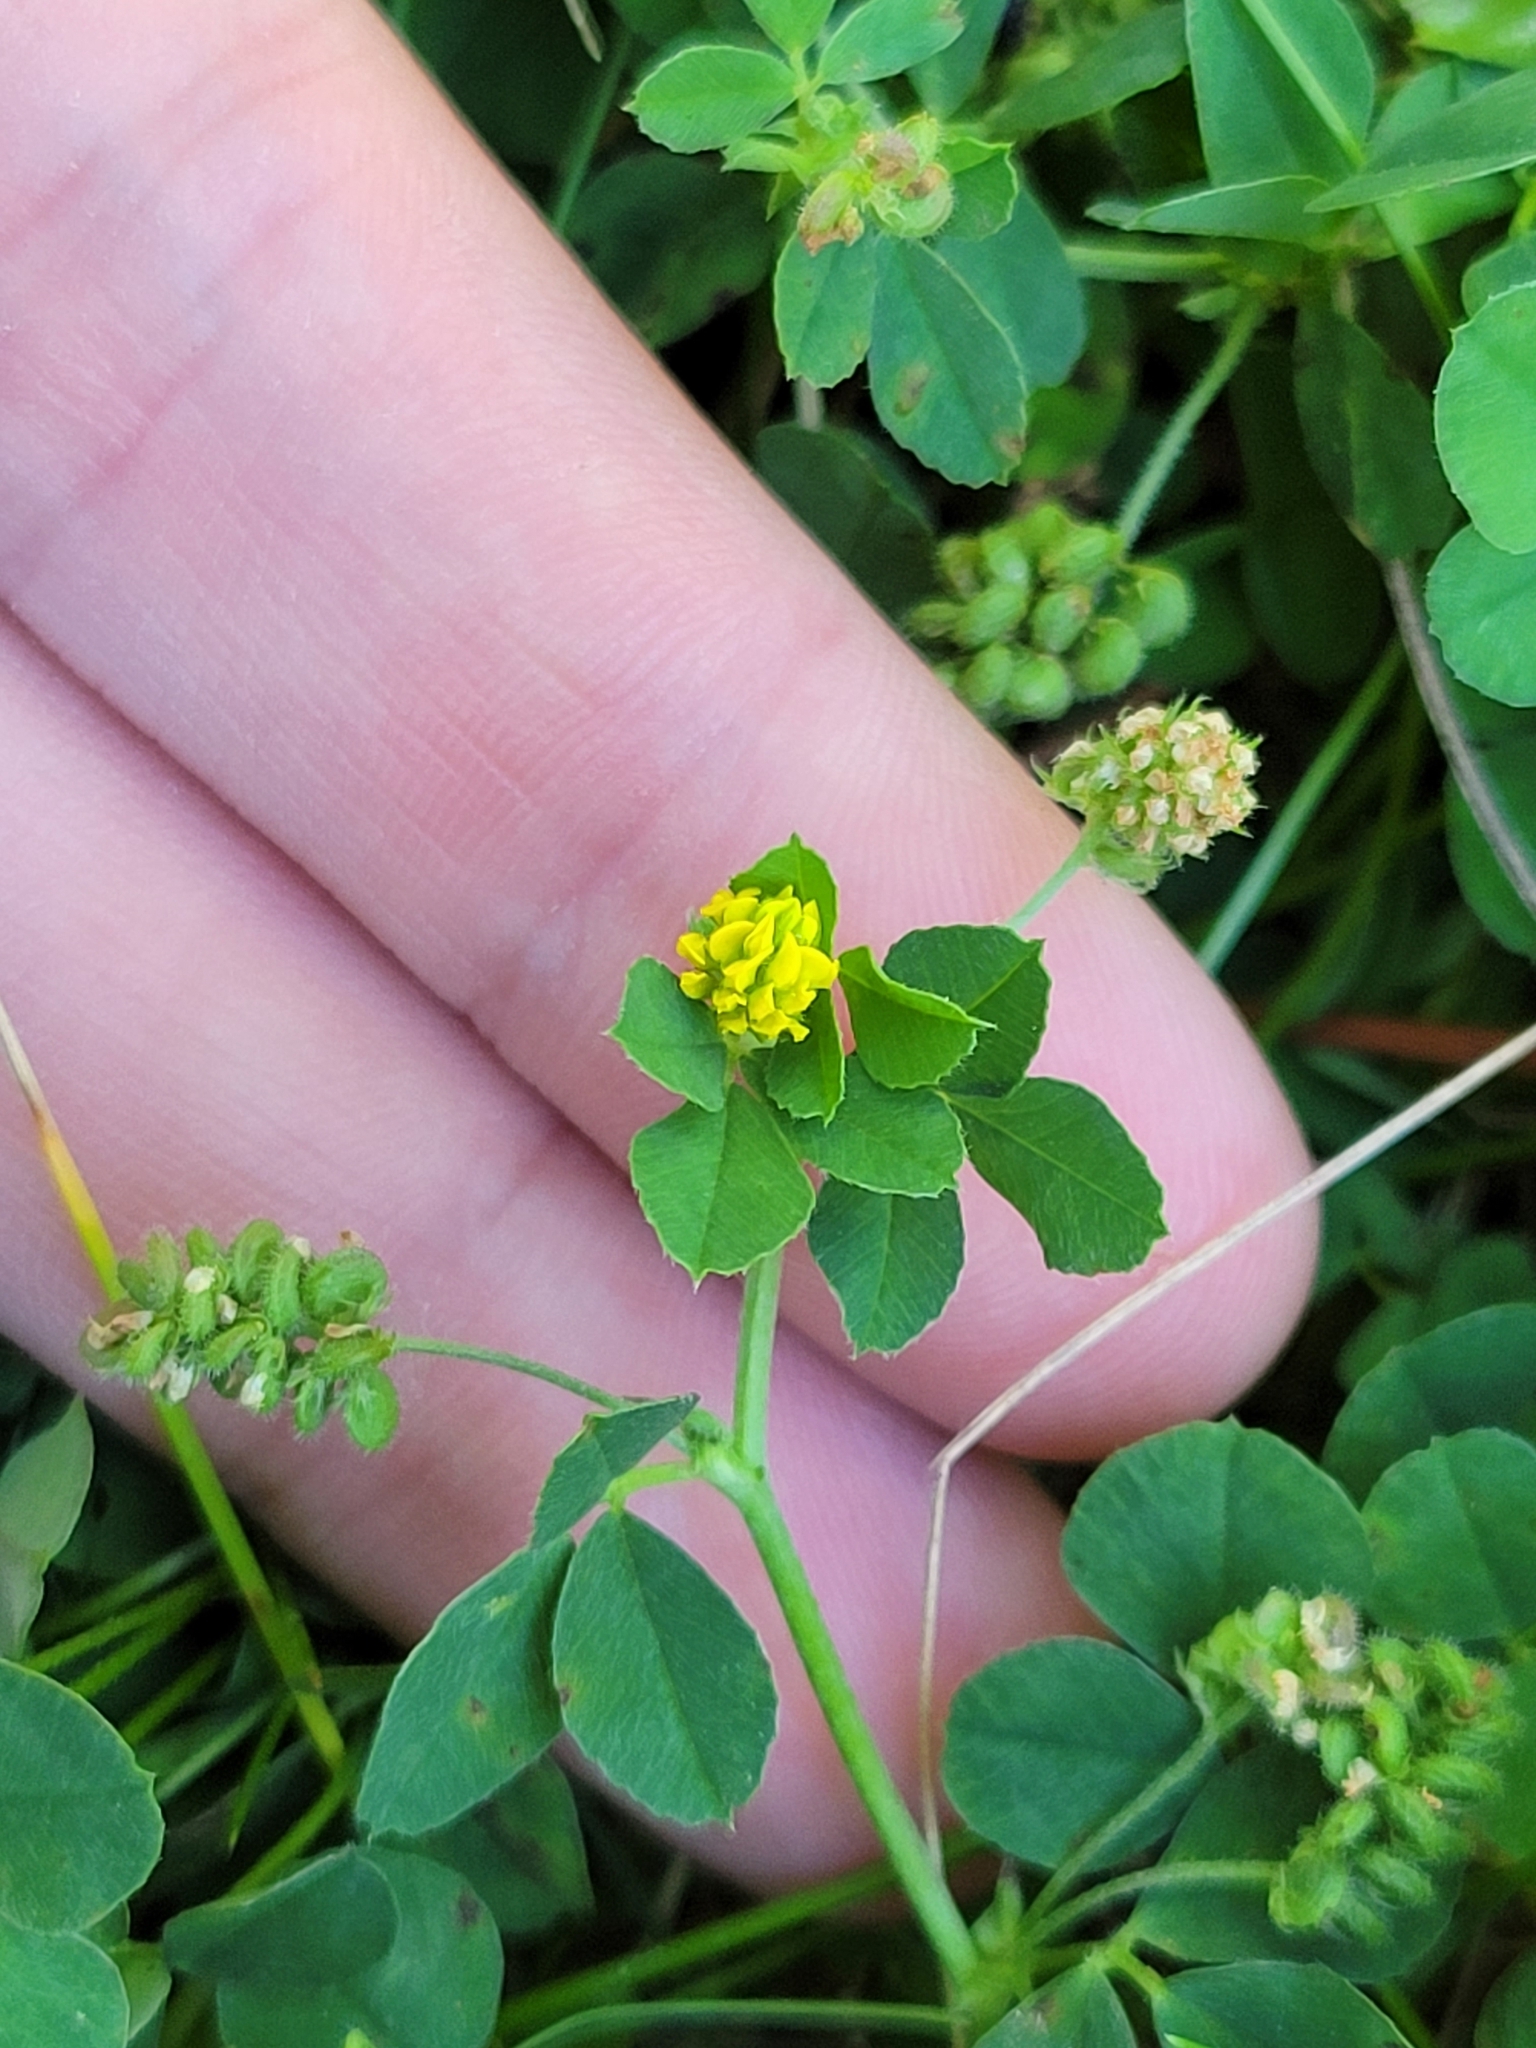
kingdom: Plantae
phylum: Tracheophyta
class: Magnoliopsida
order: Fabales
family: Fabaceae
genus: Medicago
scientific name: Medicago lupulina
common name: Black medick
